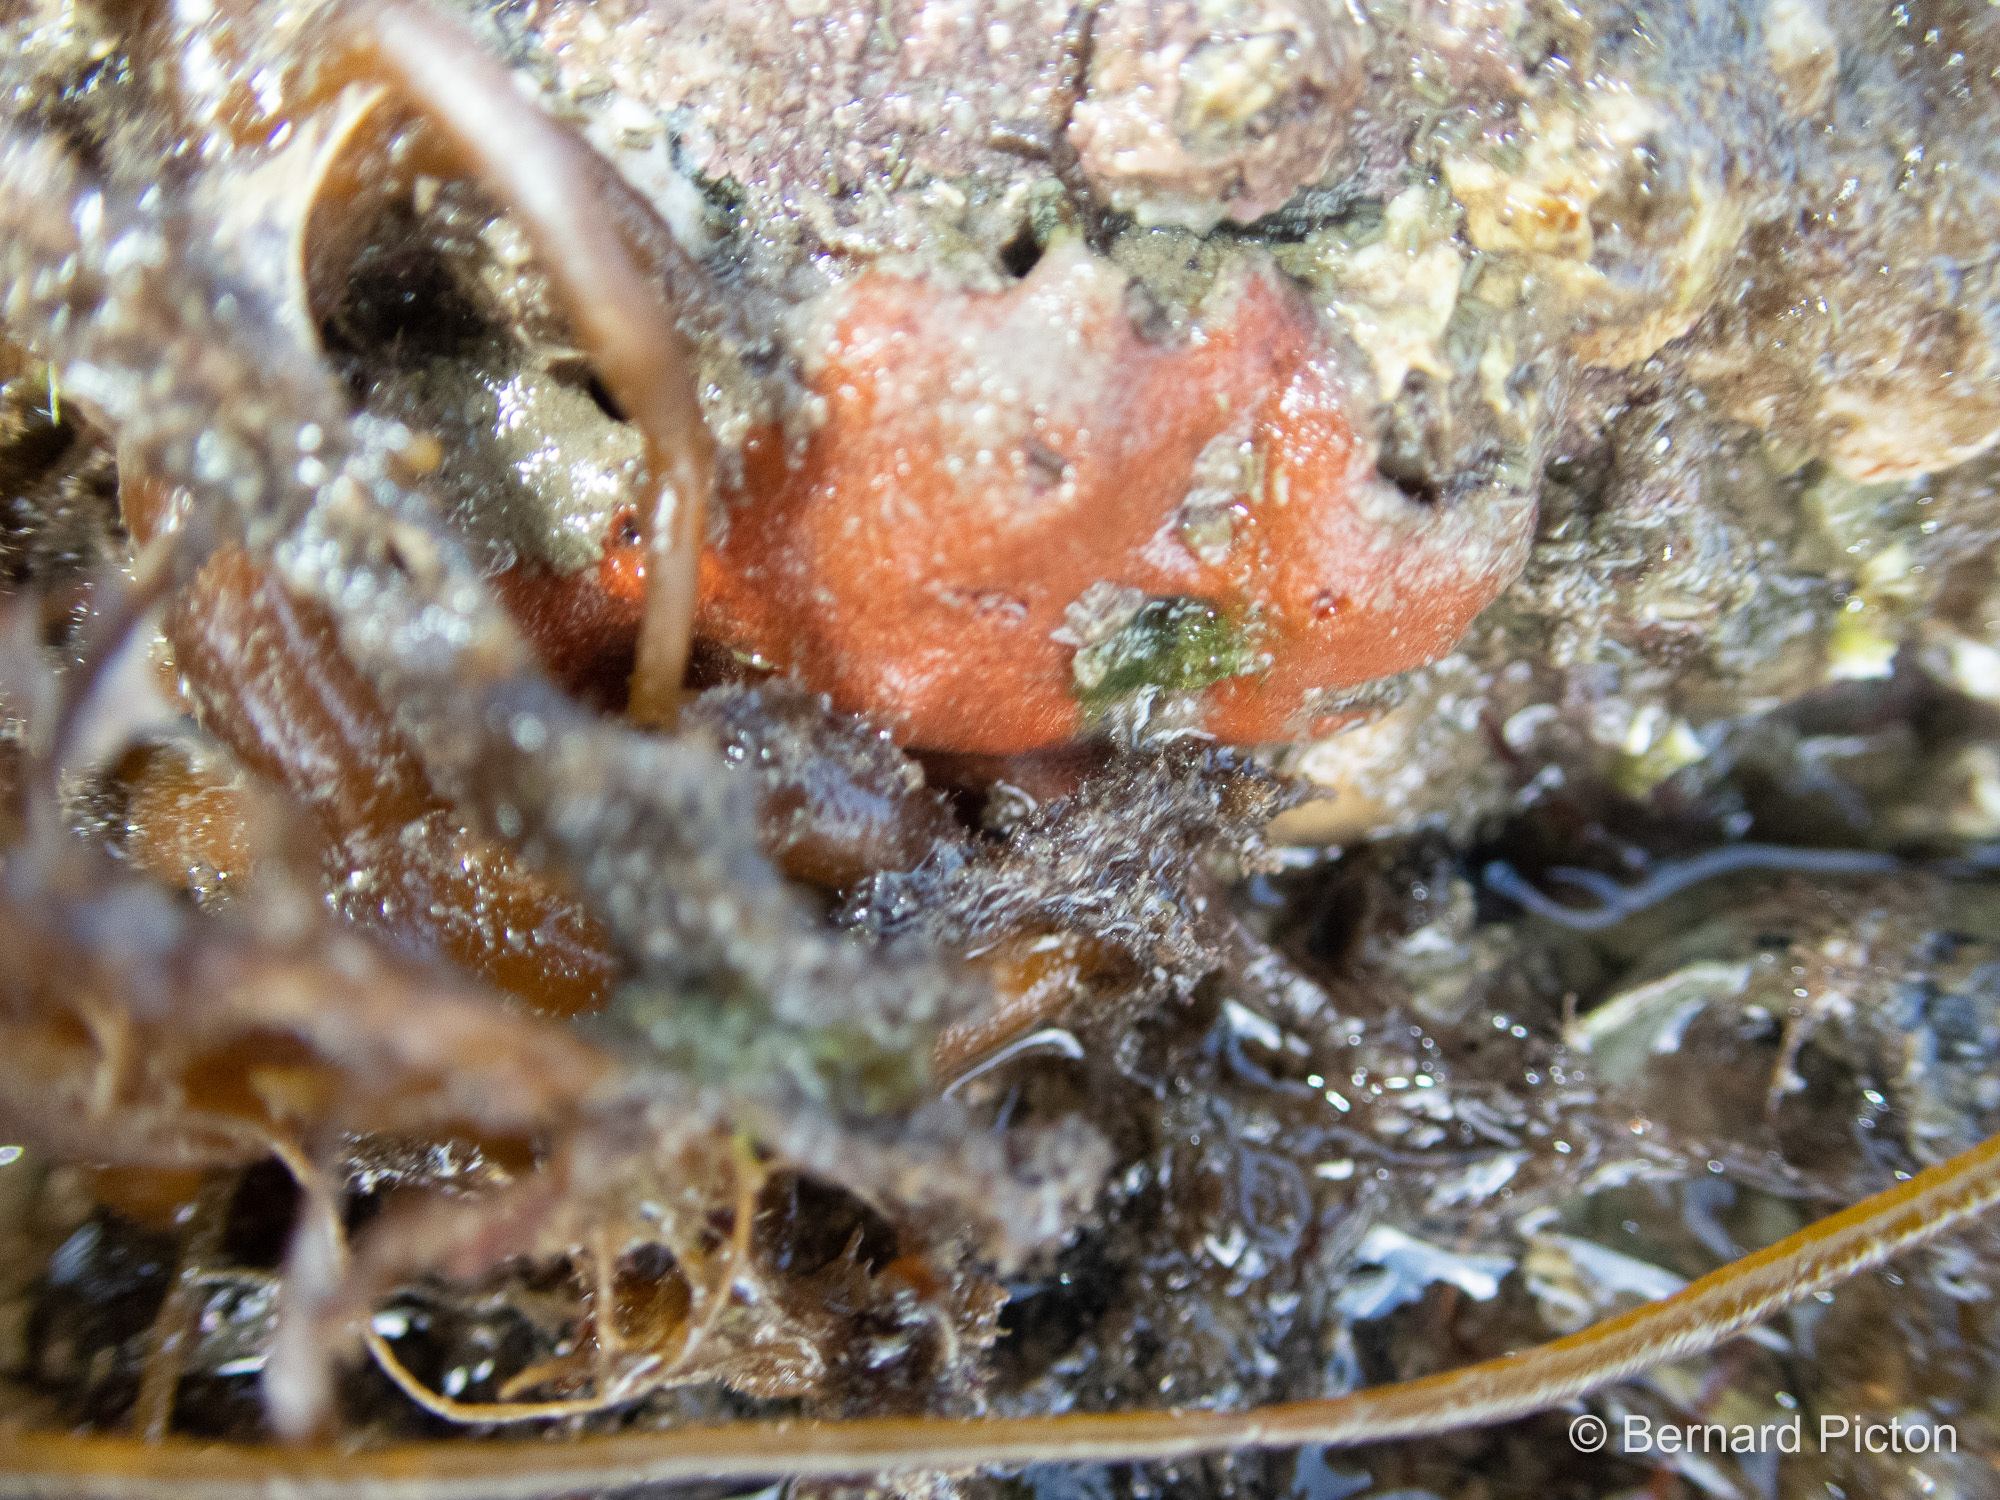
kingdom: Animalia
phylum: Porifera
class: Demospongiae
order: Poecilosclerida
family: Microcionidae
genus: Ophlitaspongia
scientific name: Ophlitaspongia papilla
